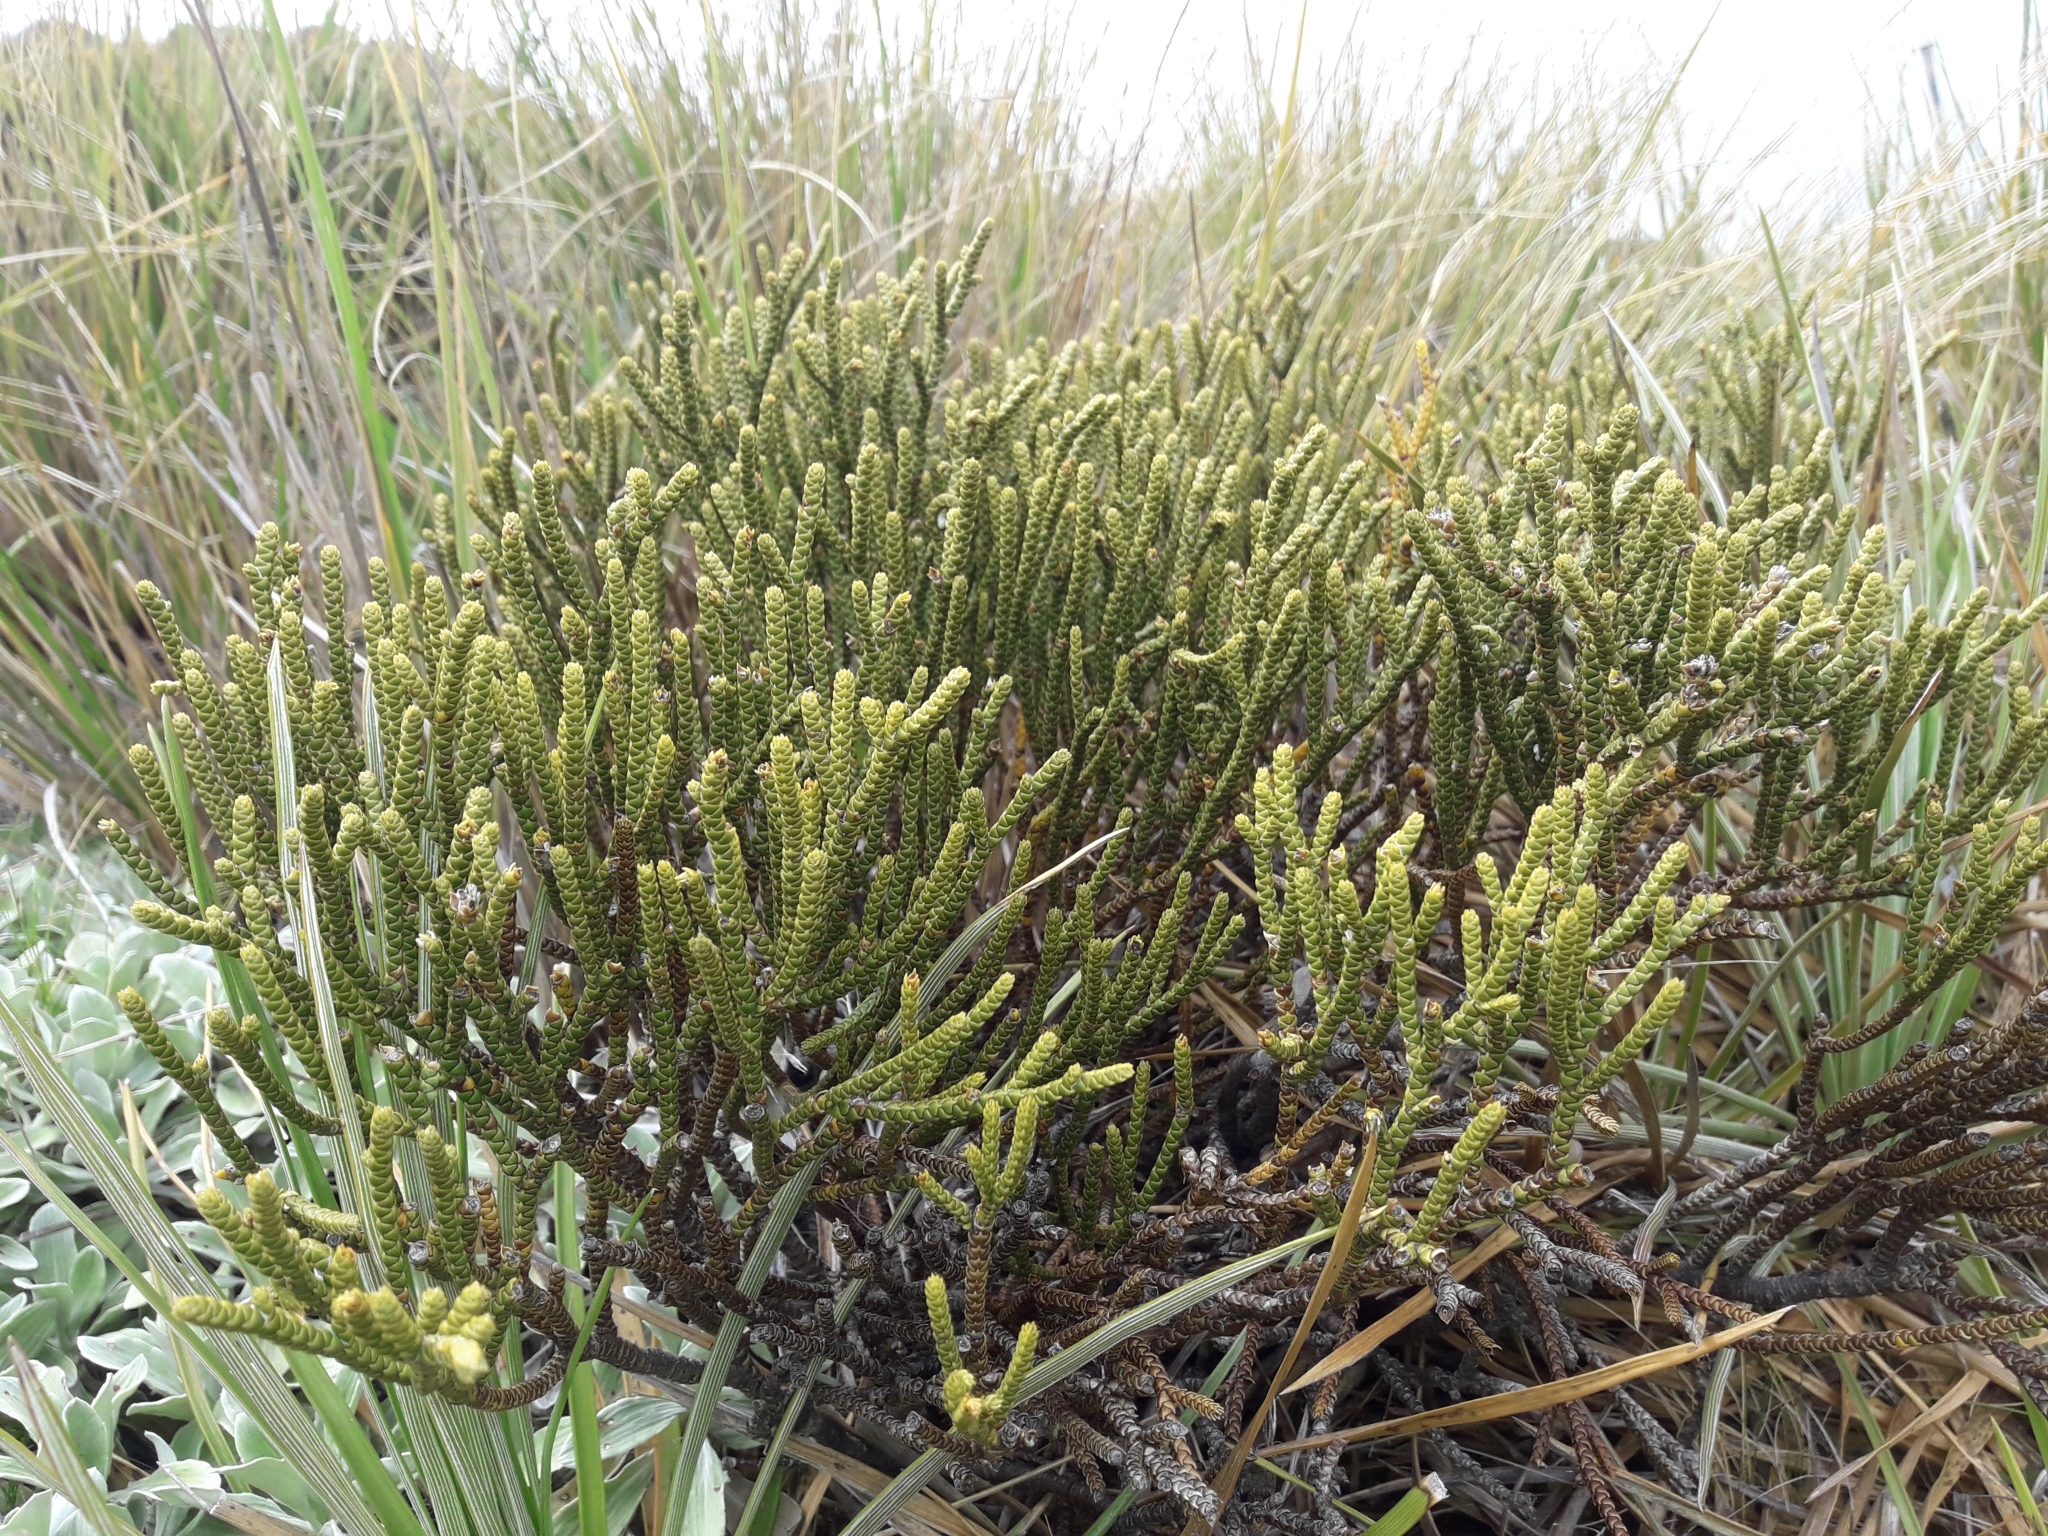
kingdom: Plantae
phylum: Tracheophyta
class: Magnoliopsida
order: Lamiales
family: Plantaginaceae
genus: Veronica
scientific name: Veronica lycopodioides
